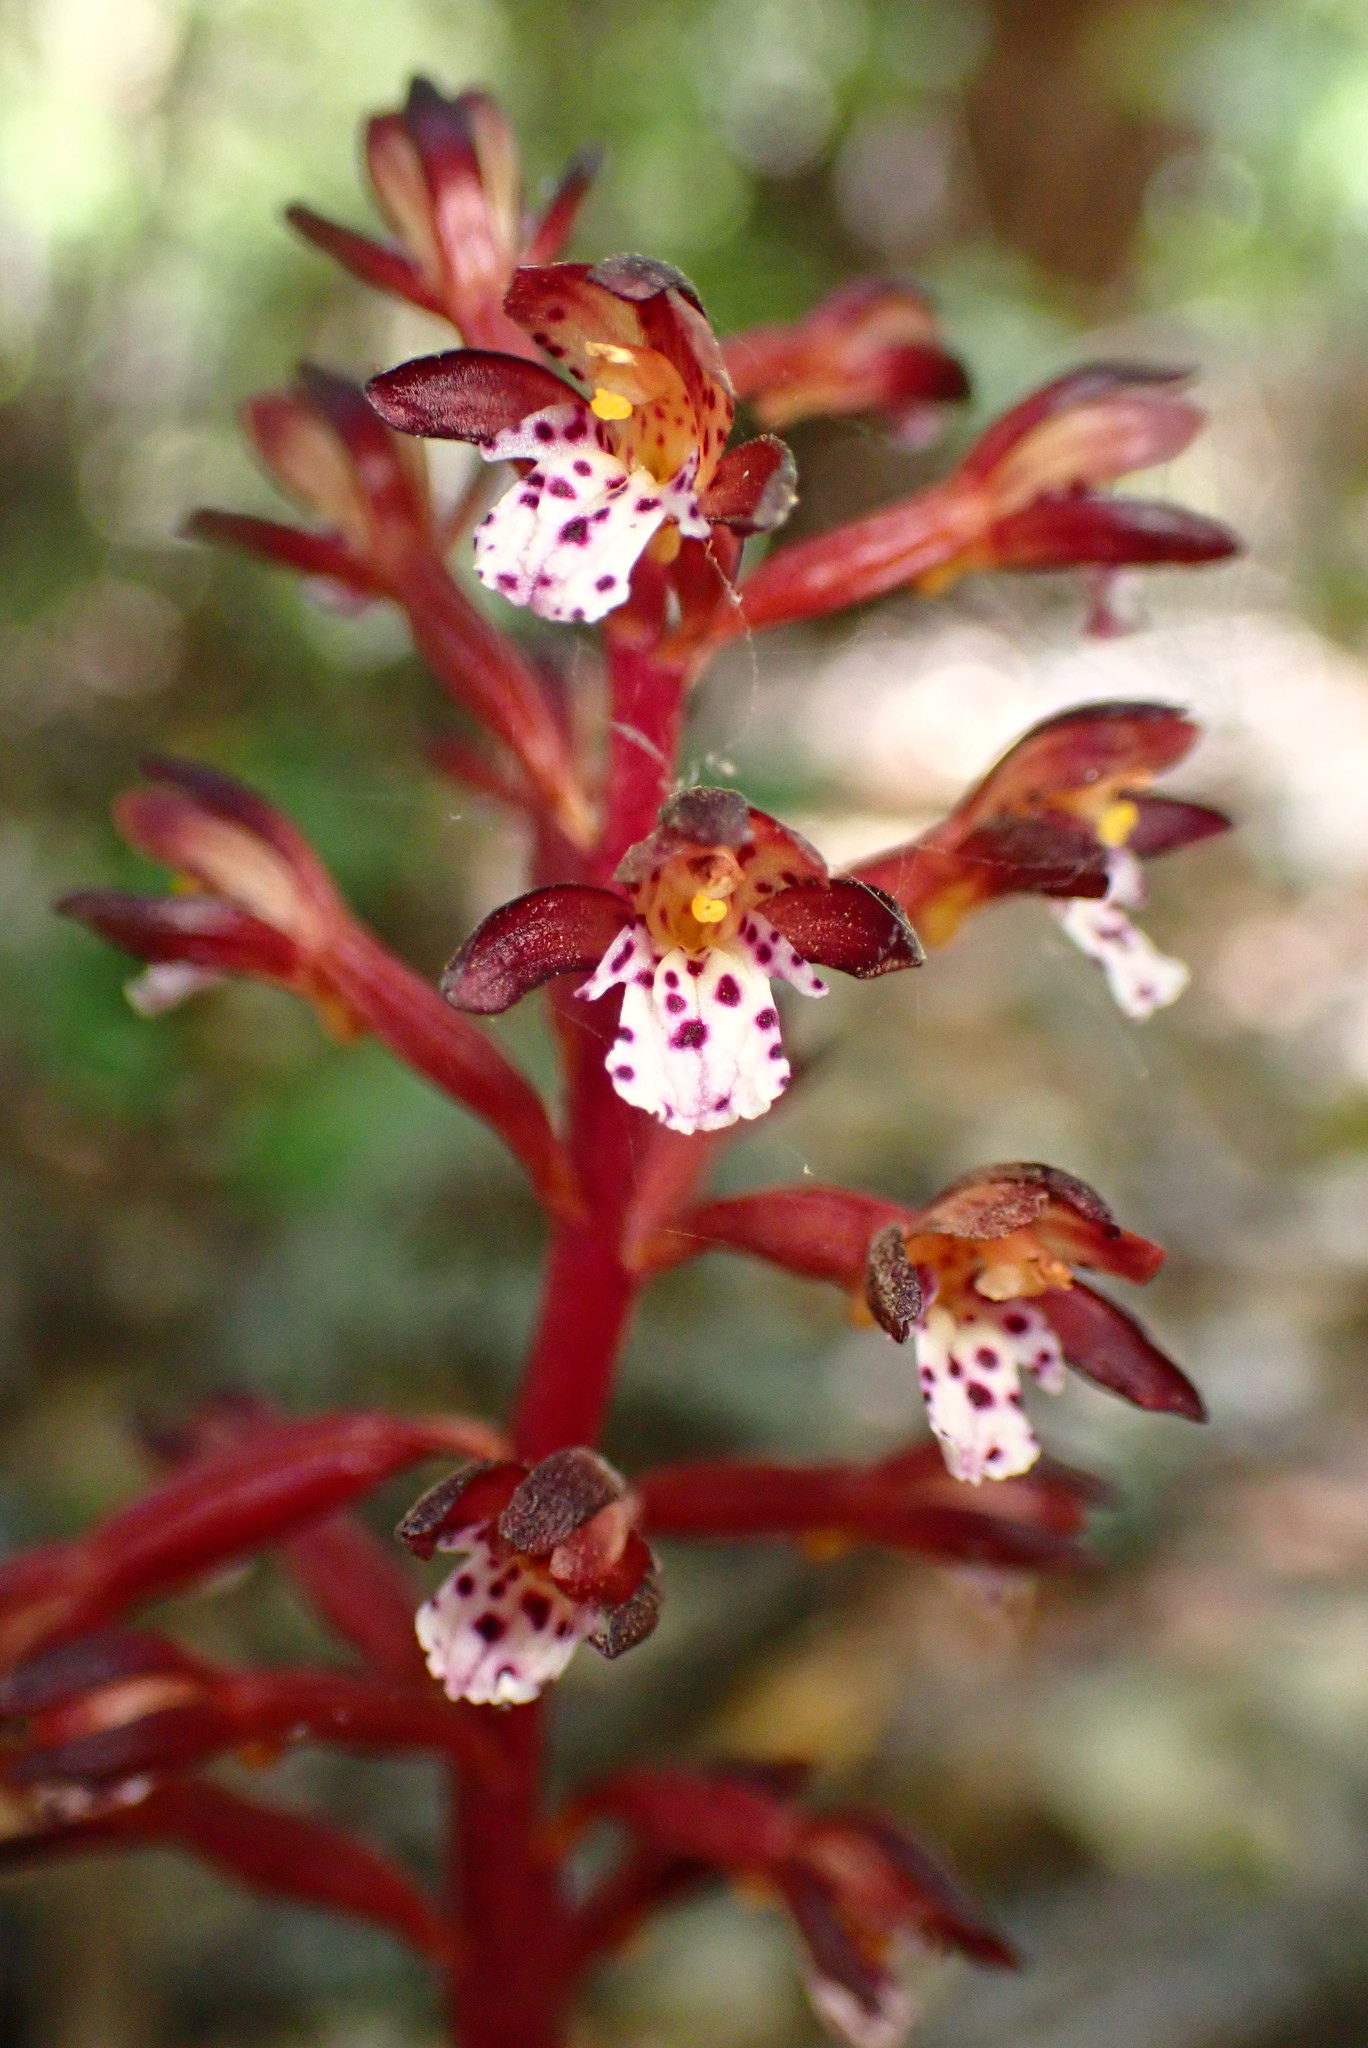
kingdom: Plantae
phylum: Tracheophyta
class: Liliopsida
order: Asparagales
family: Orchidaceae
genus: Corallorhiza
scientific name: Corallorhiza maculata
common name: Spotted coralroot
